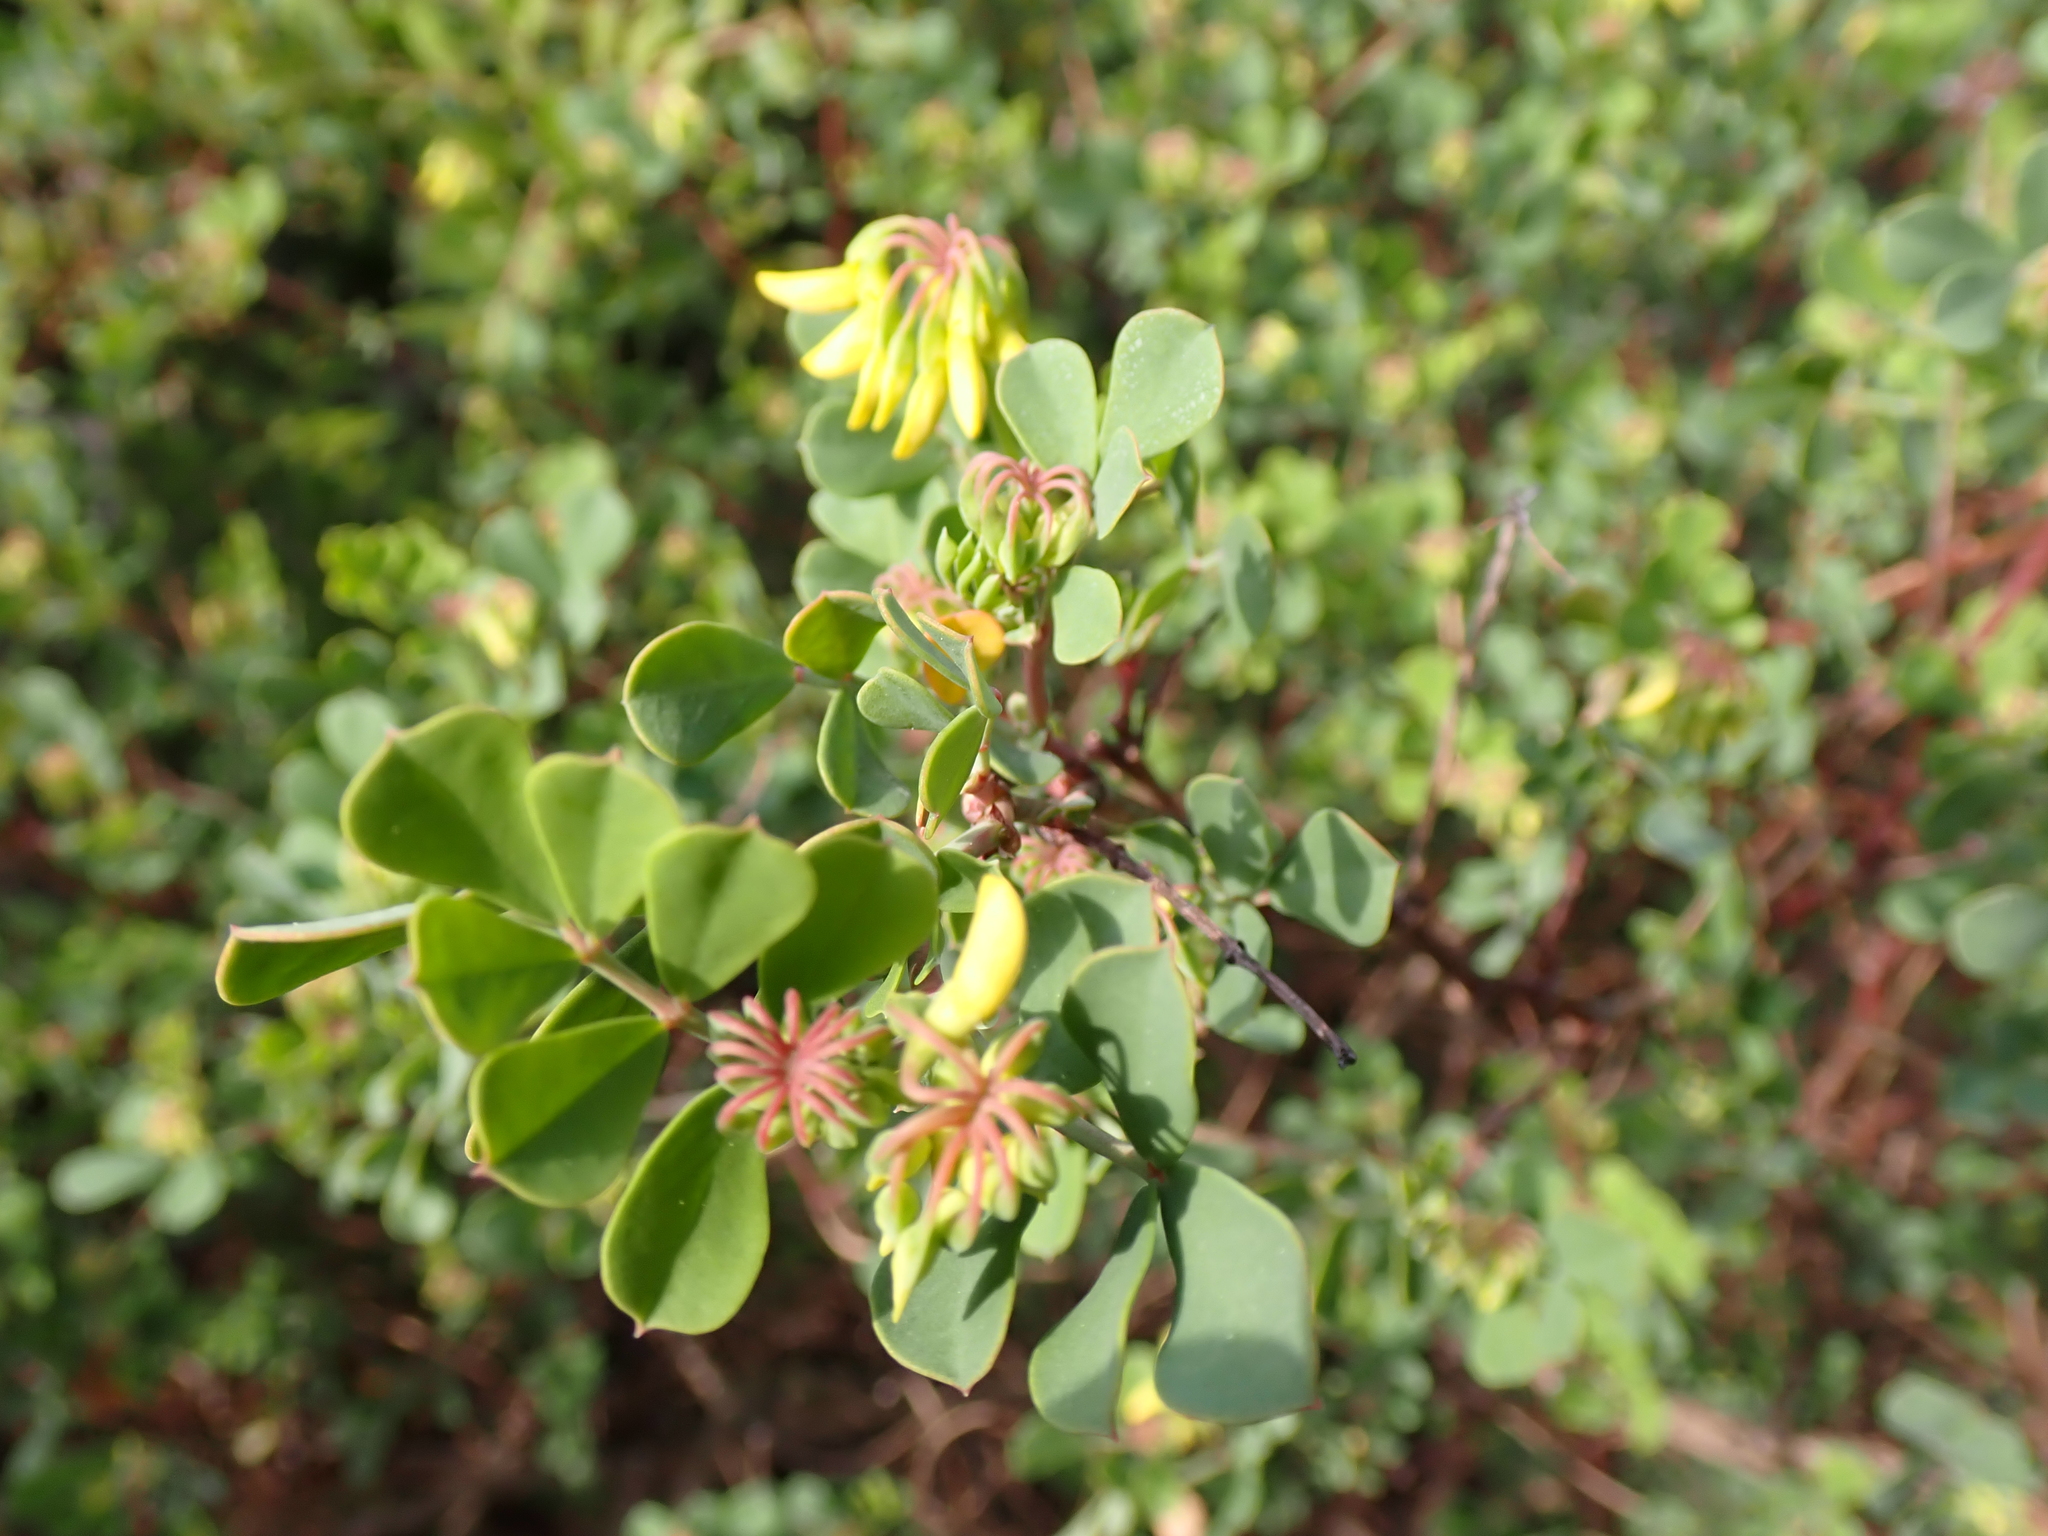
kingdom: Plantae
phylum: Tracheophyta
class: Magnoliopsida
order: Fabales
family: Fabaceae
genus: Coronilla
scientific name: Coronilla valentina
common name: Shrubby scorpion-vetch
